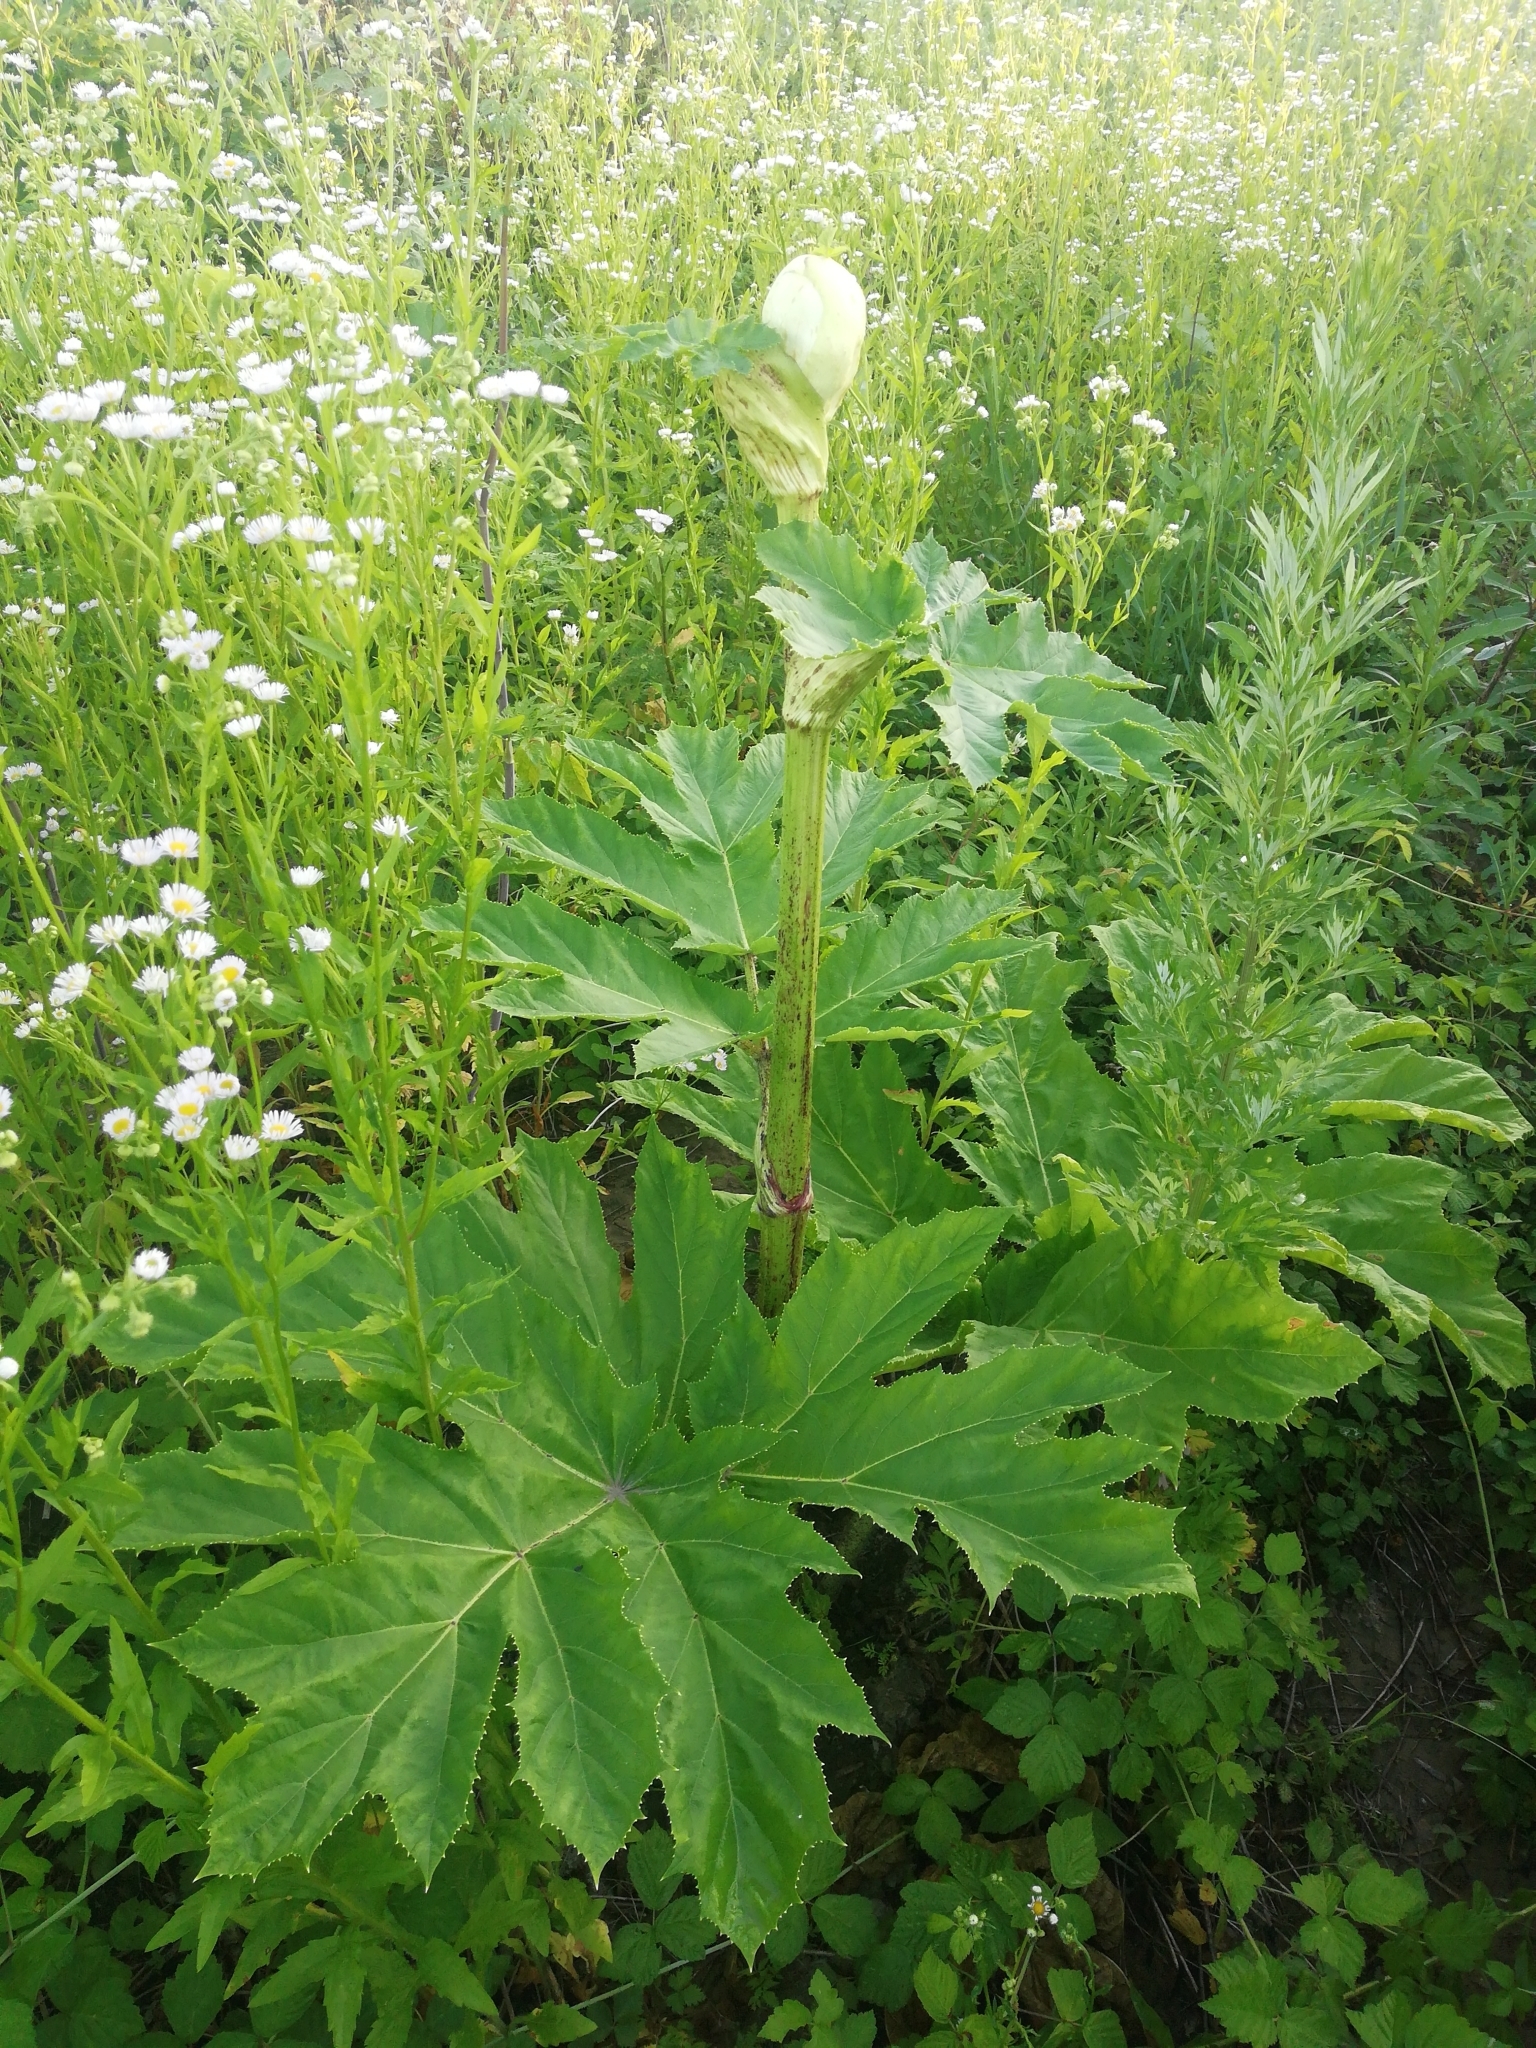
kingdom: Plantae
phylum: Tracheophyta
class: Magnoliopsida
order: Apiales
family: Apiaceae
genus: Heracleum
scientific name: Heracleum sosnowskyi
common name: Sosnowsky's hogweed
